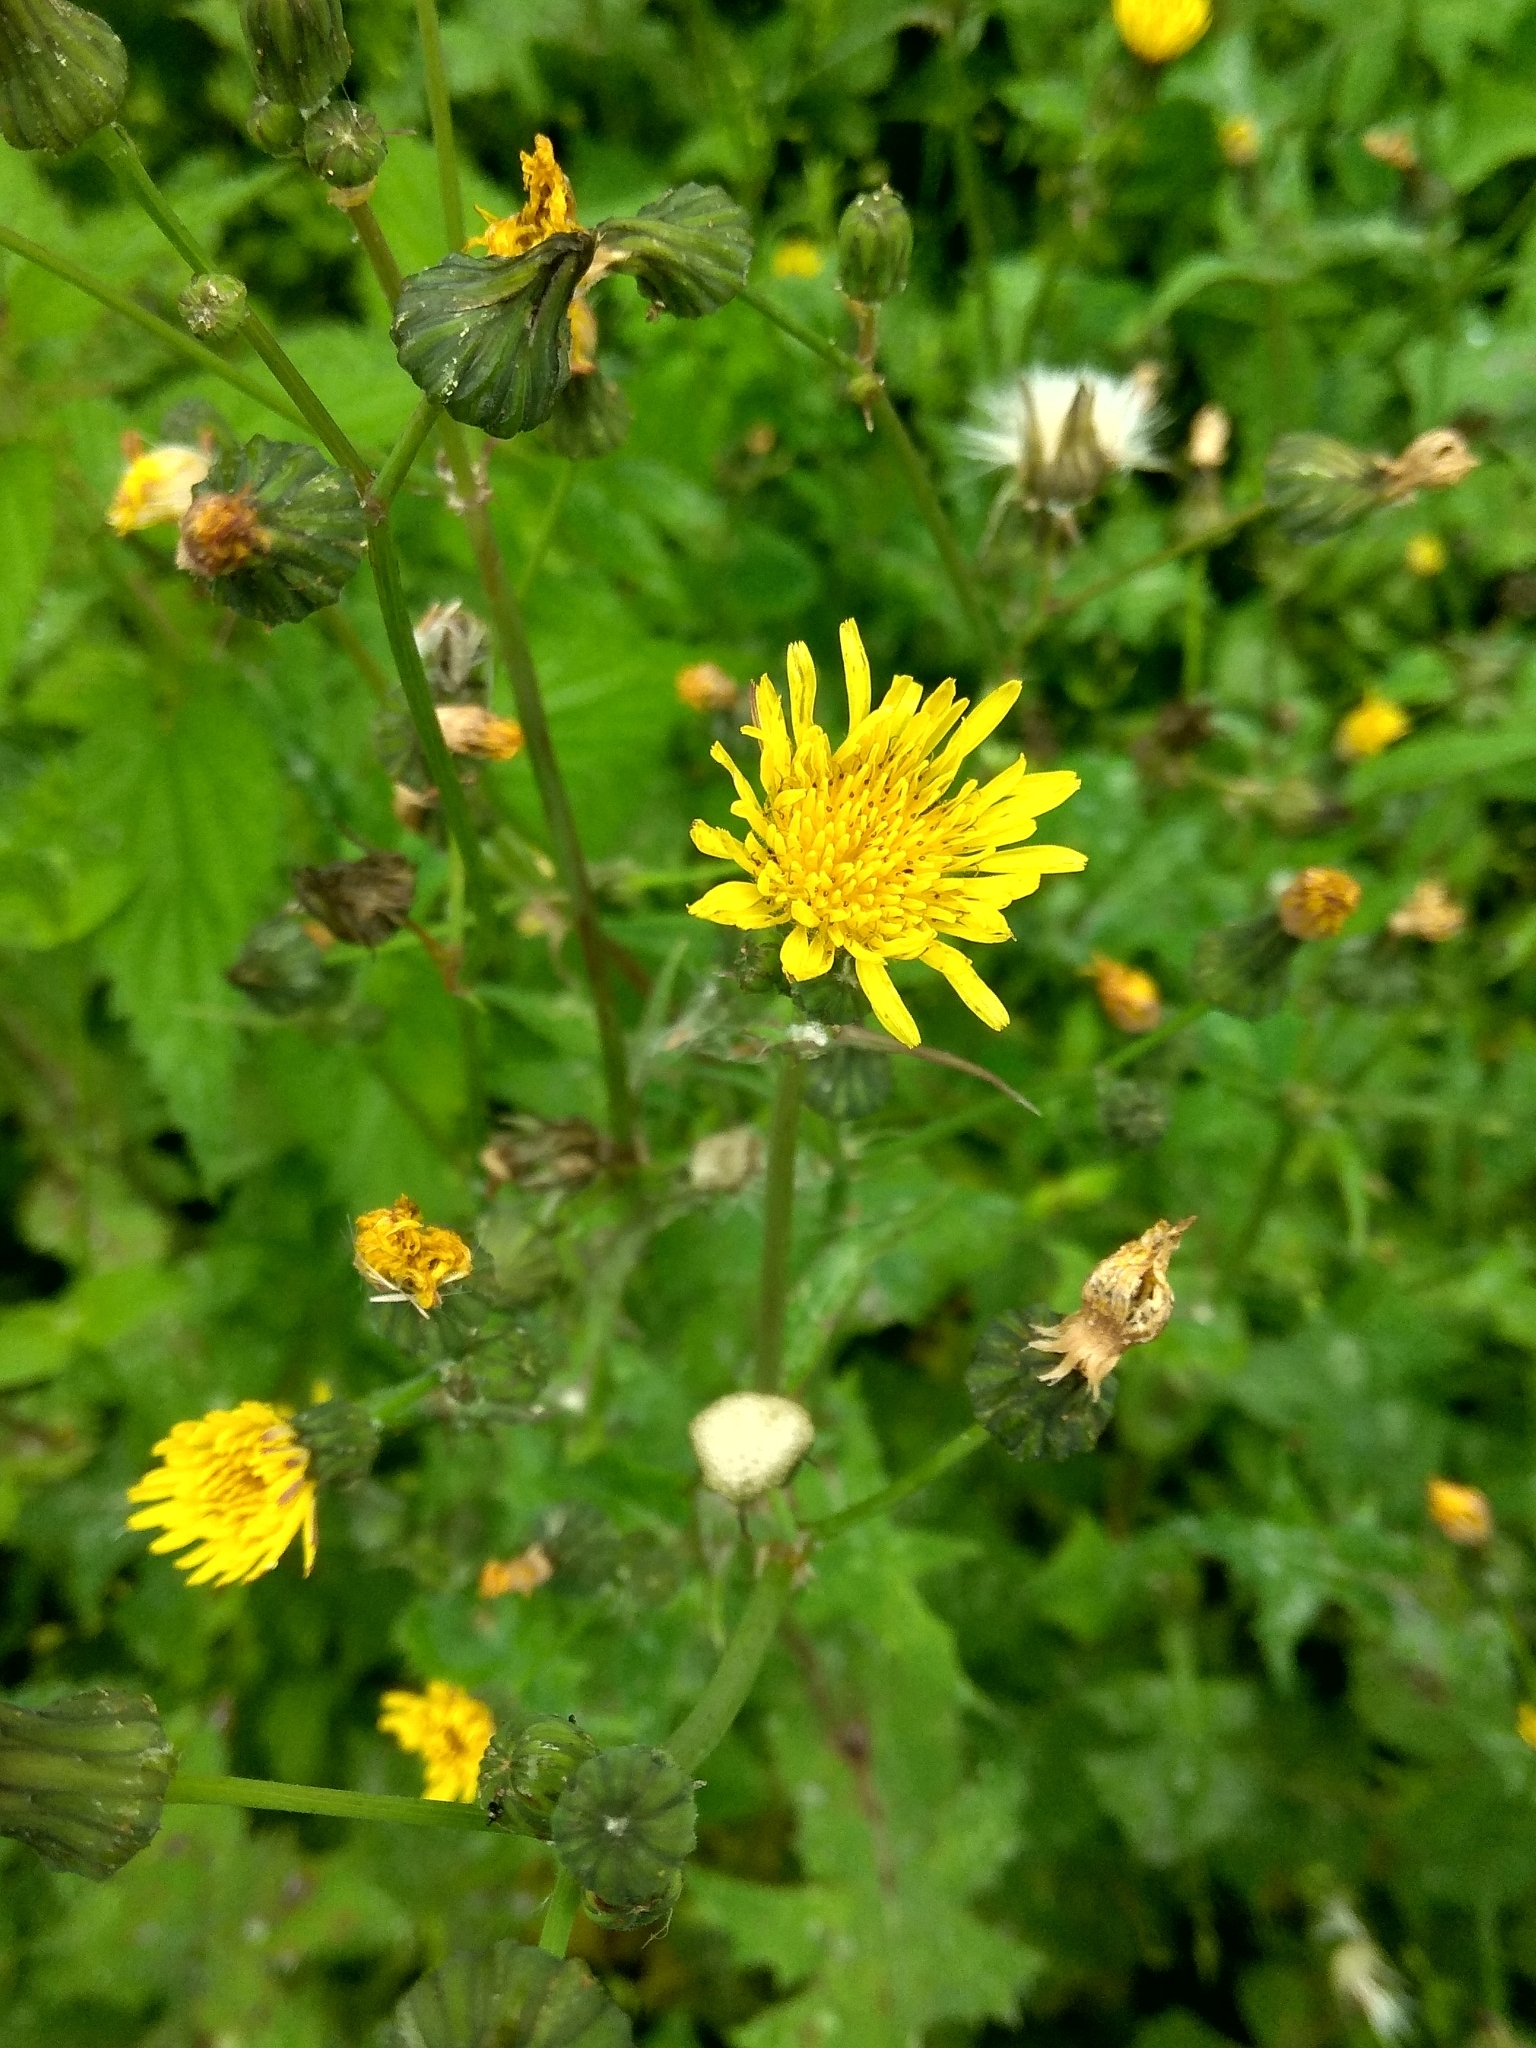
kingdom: Plantae
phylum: Tracheophyta
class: Magnoliopsida
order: Asterales
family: Asteraceae
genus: Sonchus
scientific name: Sonchus oleraceus
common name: Common sowthistle
